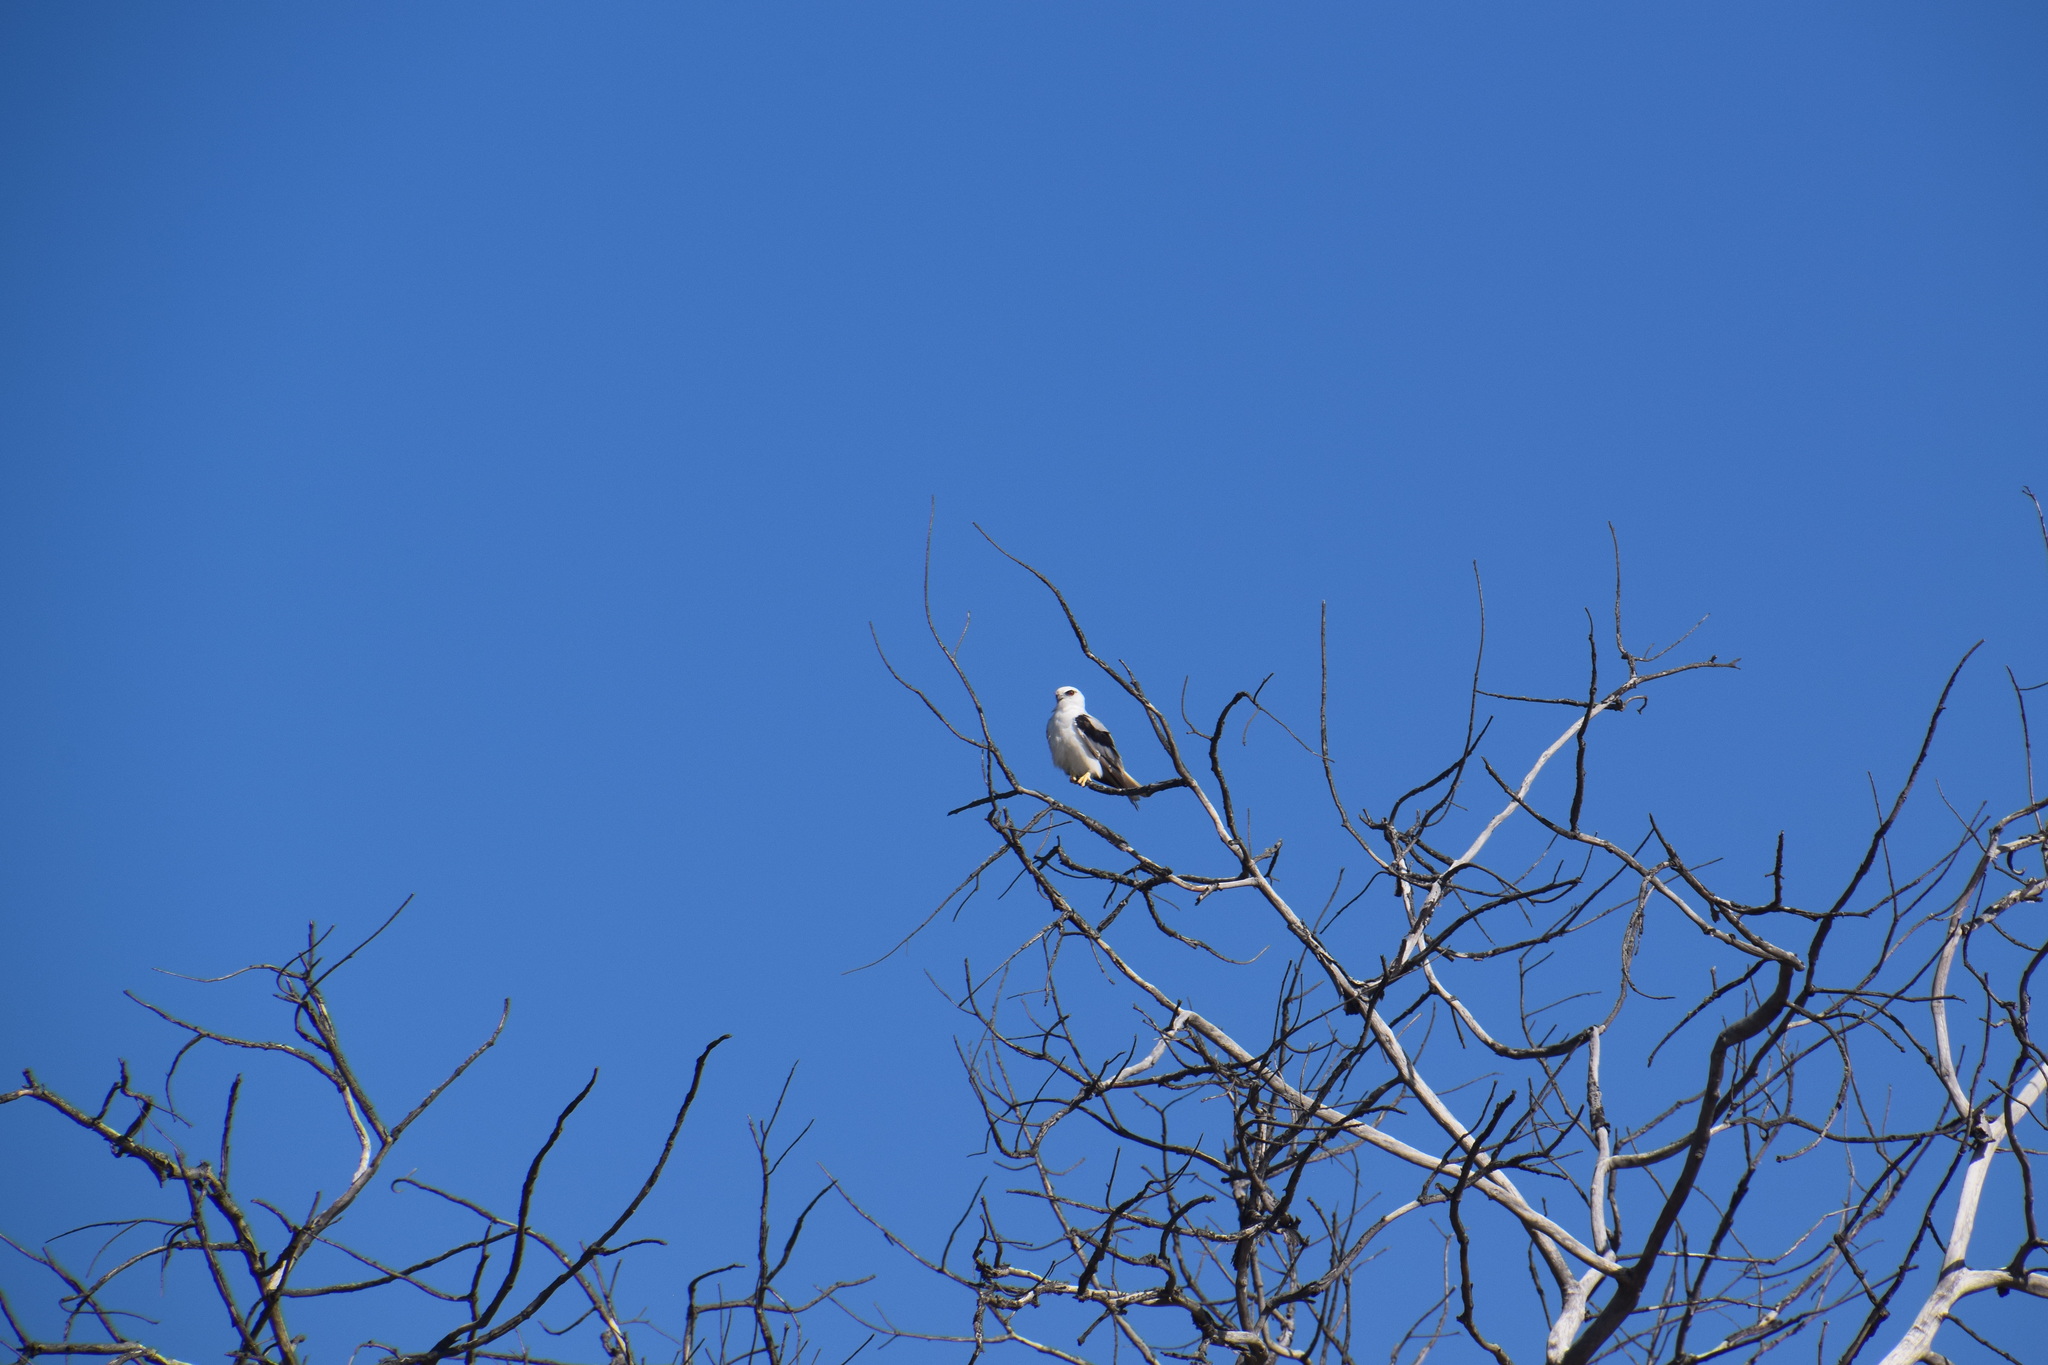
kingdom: Animalia
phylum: Chordata
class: Aves
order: Accipitriformes
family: Accipitridae
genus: Elanus
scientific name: Elanus axillaris
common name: Black-shouldered kite
